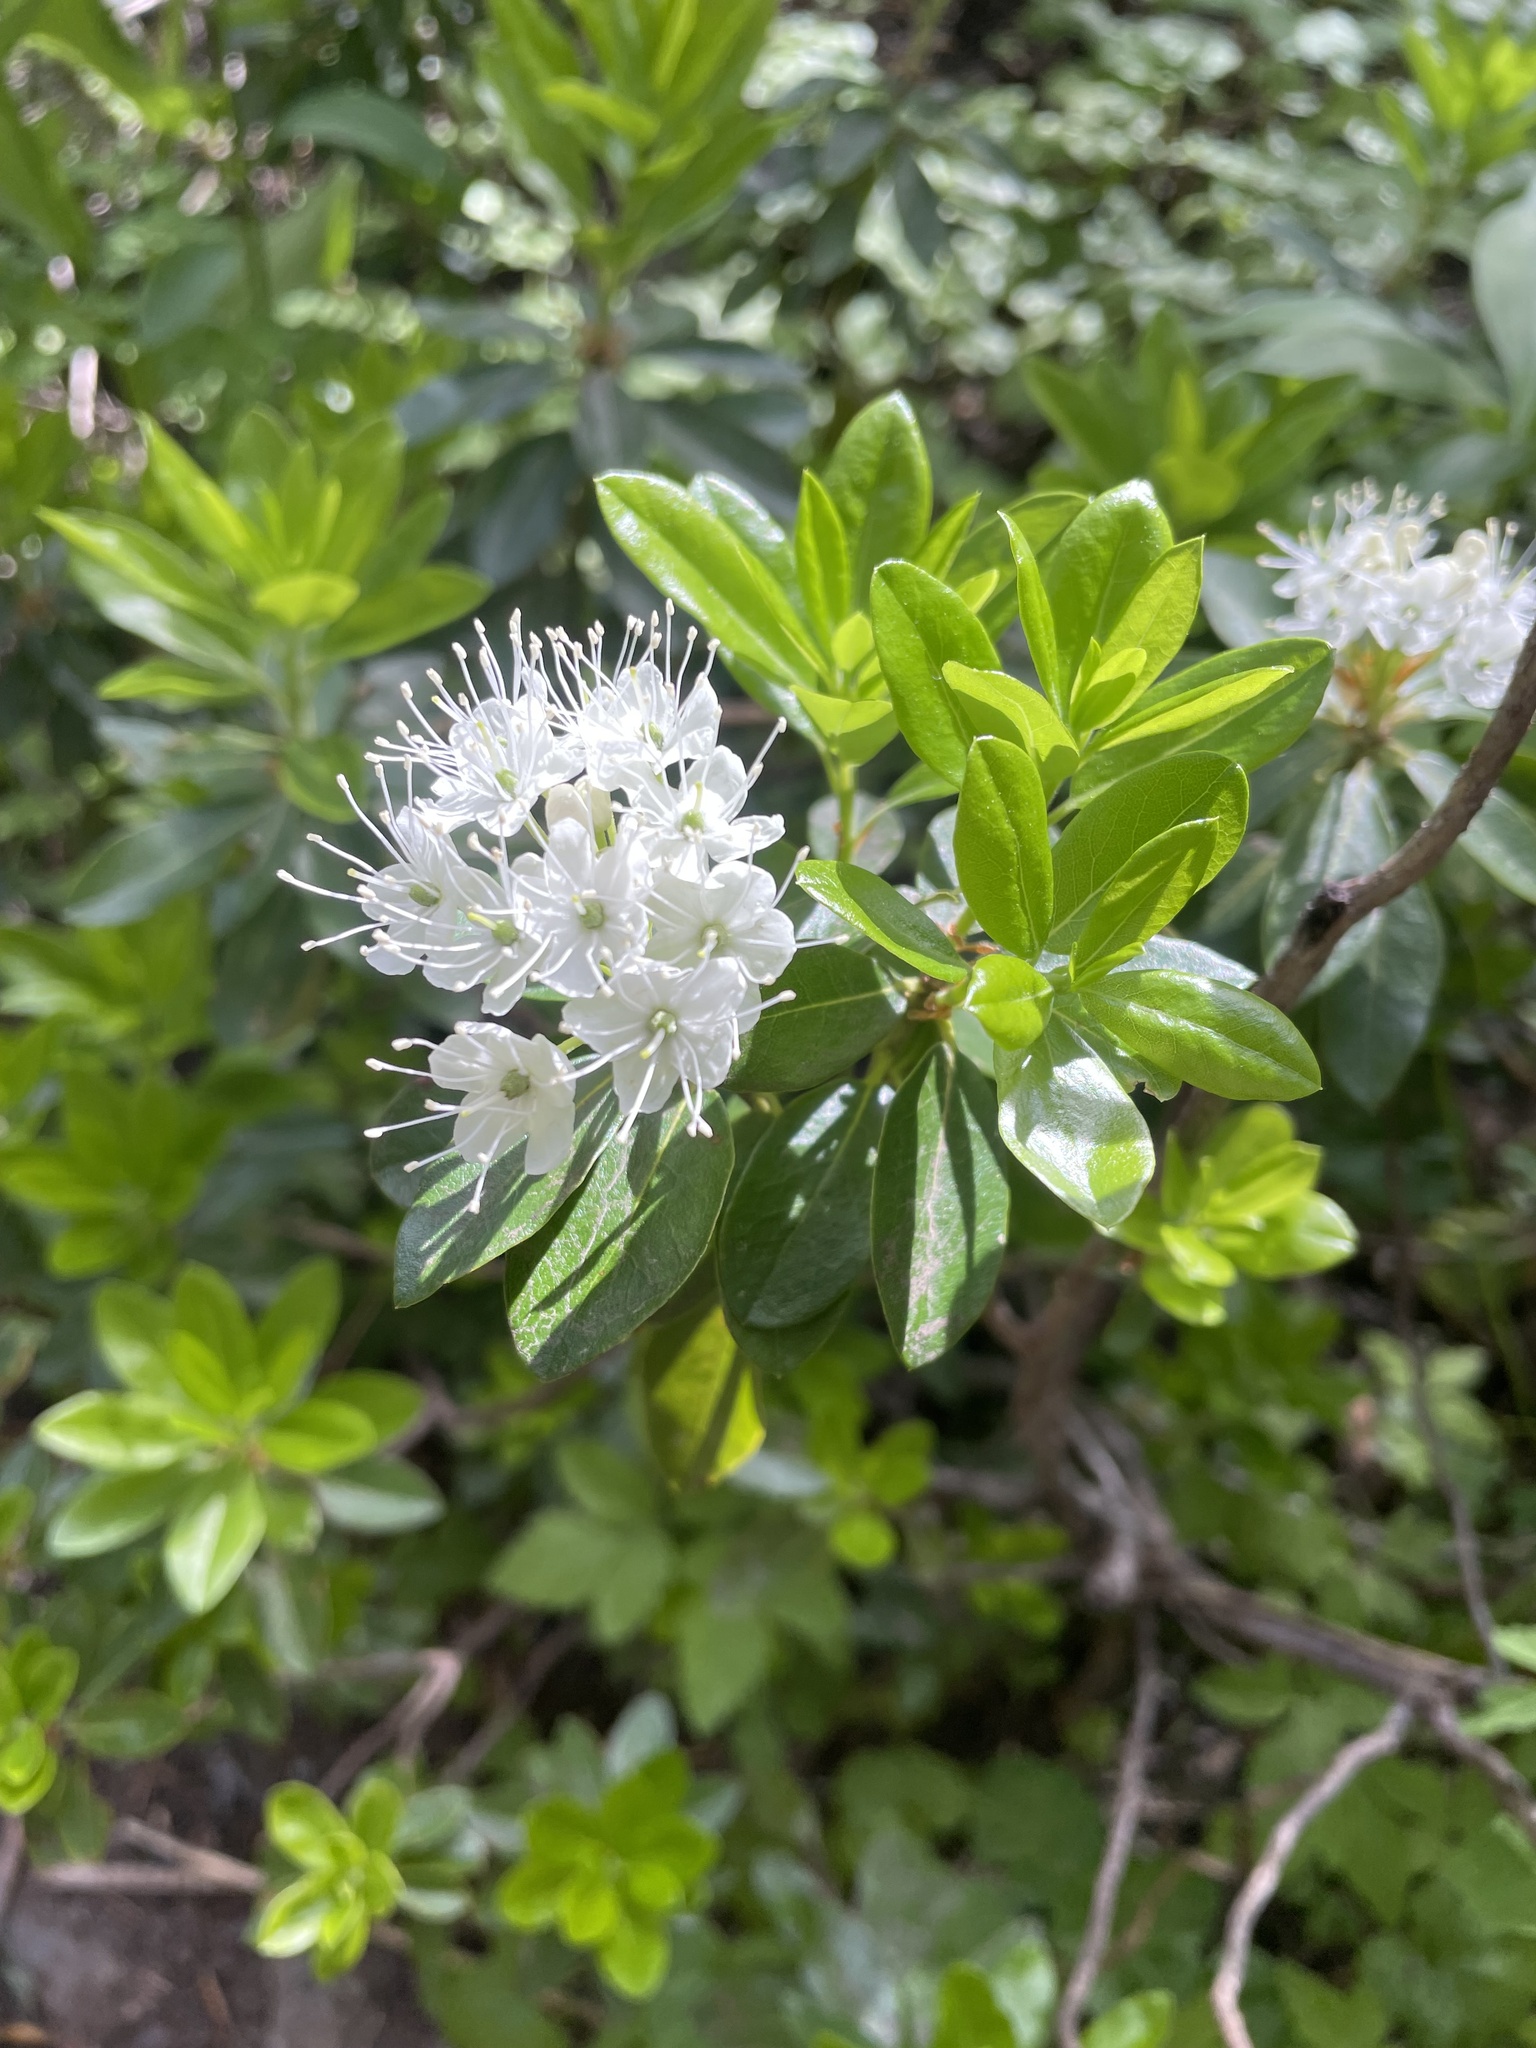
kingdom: Plantae
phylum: Tracheophyta
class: Magnoliopsida
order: Ericales
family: Ericaceae
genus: Rhododendron
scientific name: Rhododendron columbianum
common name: Western labrador tea
